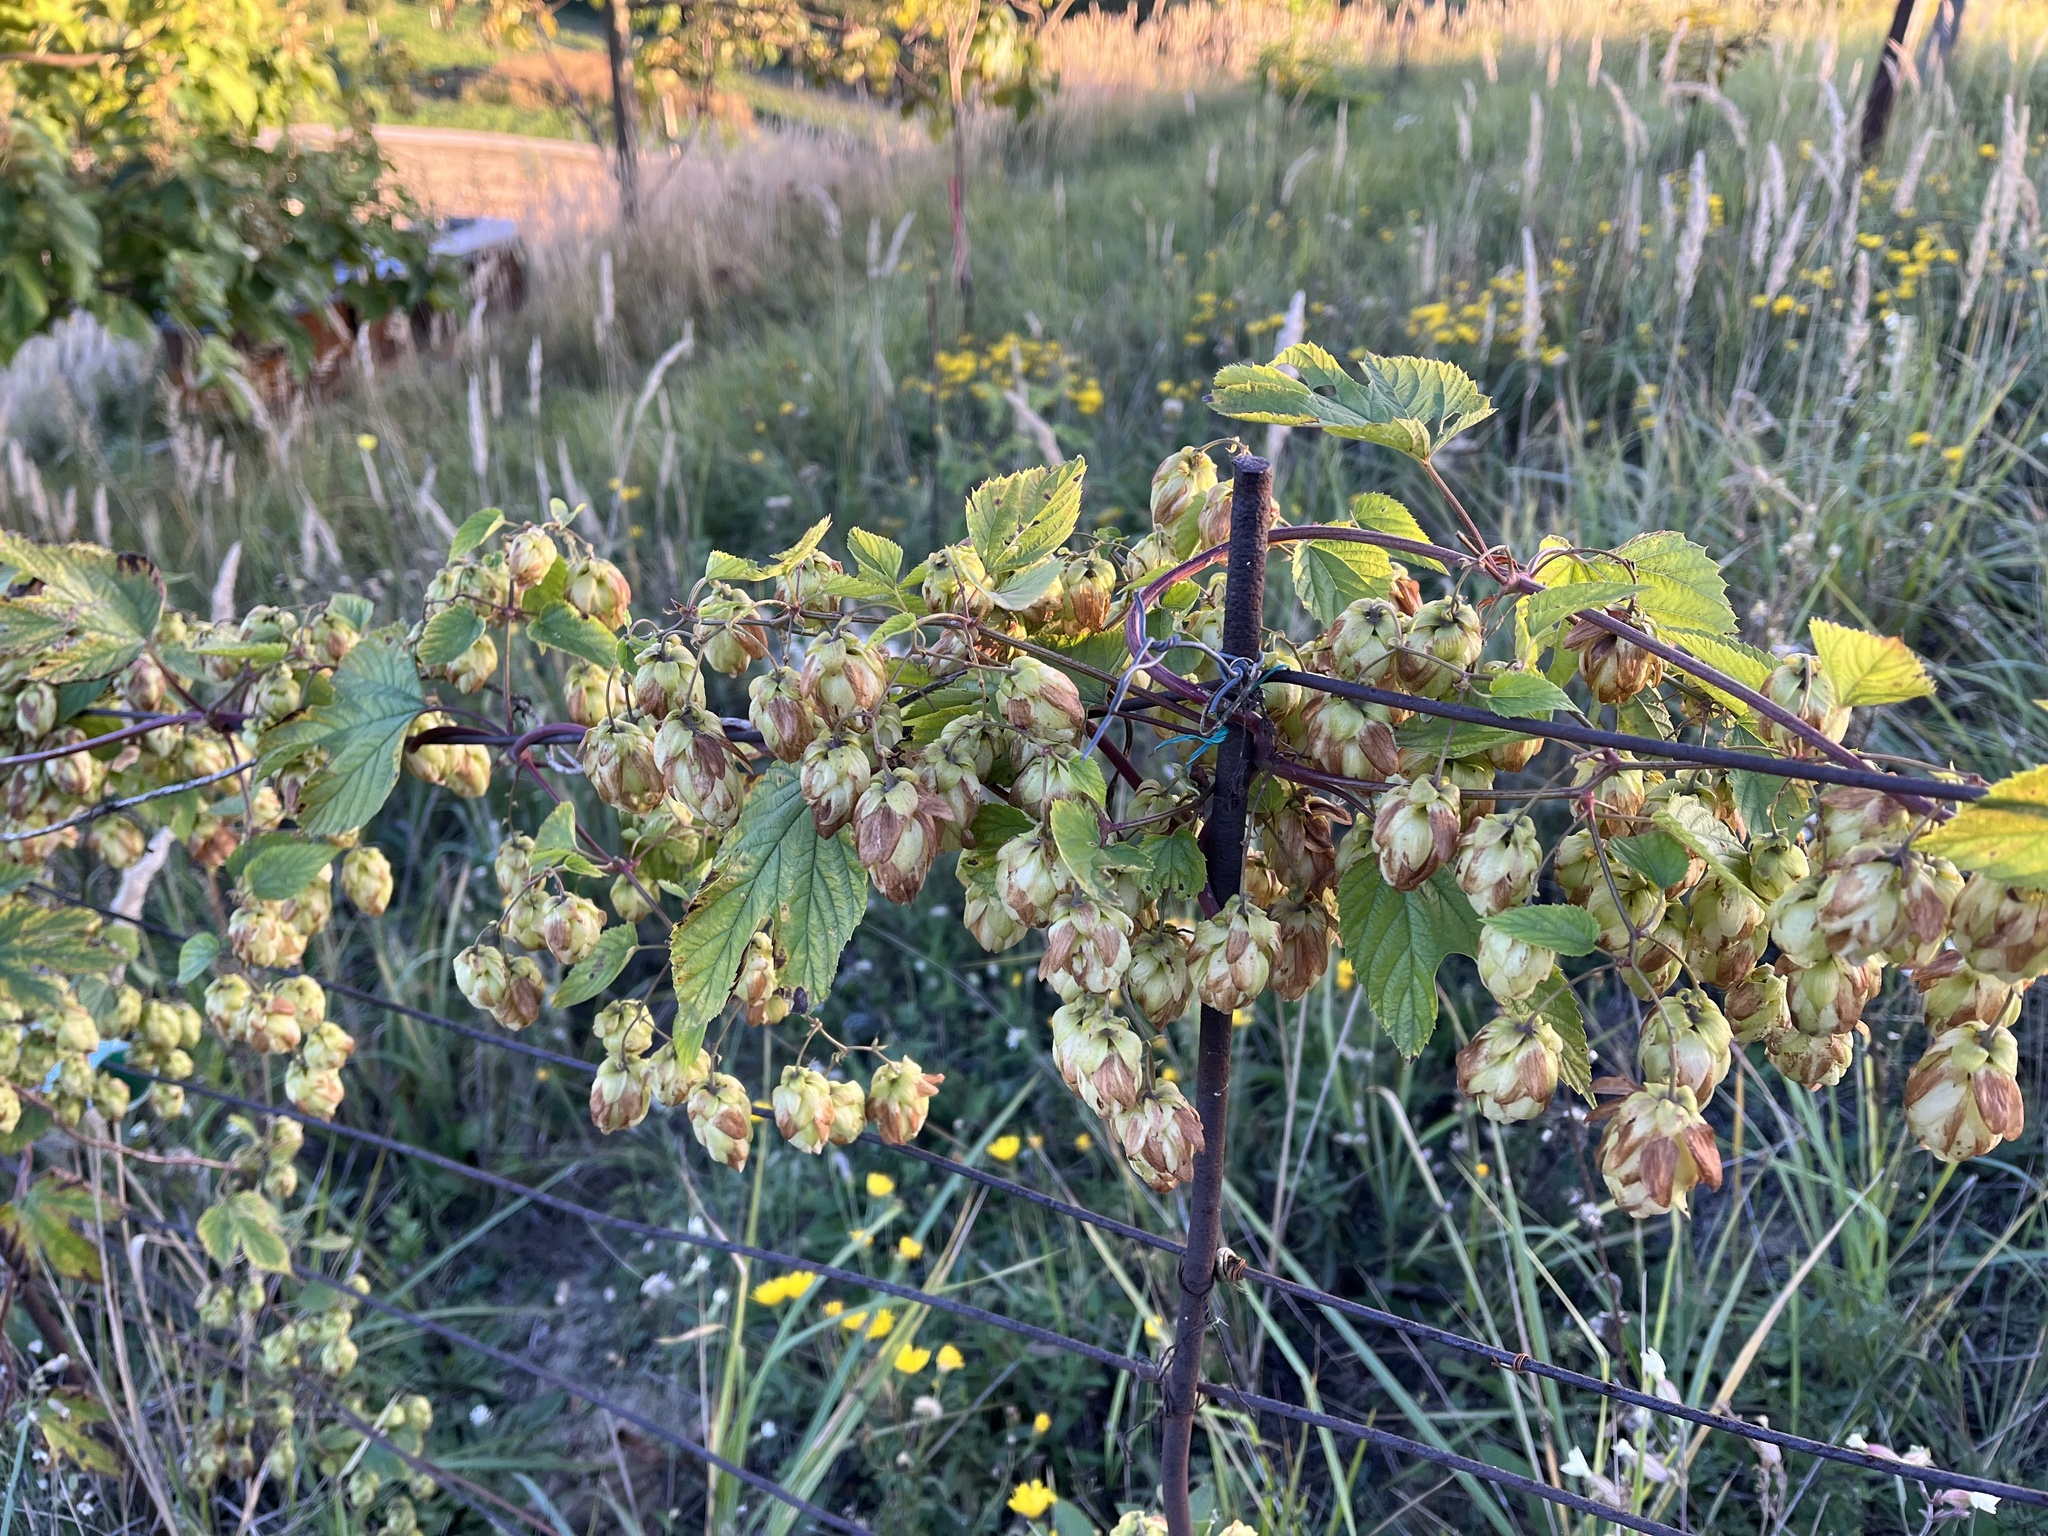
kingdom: Plantae
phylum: Tracheophyta
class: Magnoliopsida
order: Rosales
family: Cannabaceae
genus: Humulus
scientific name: Humulus lupulus
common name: Hop
